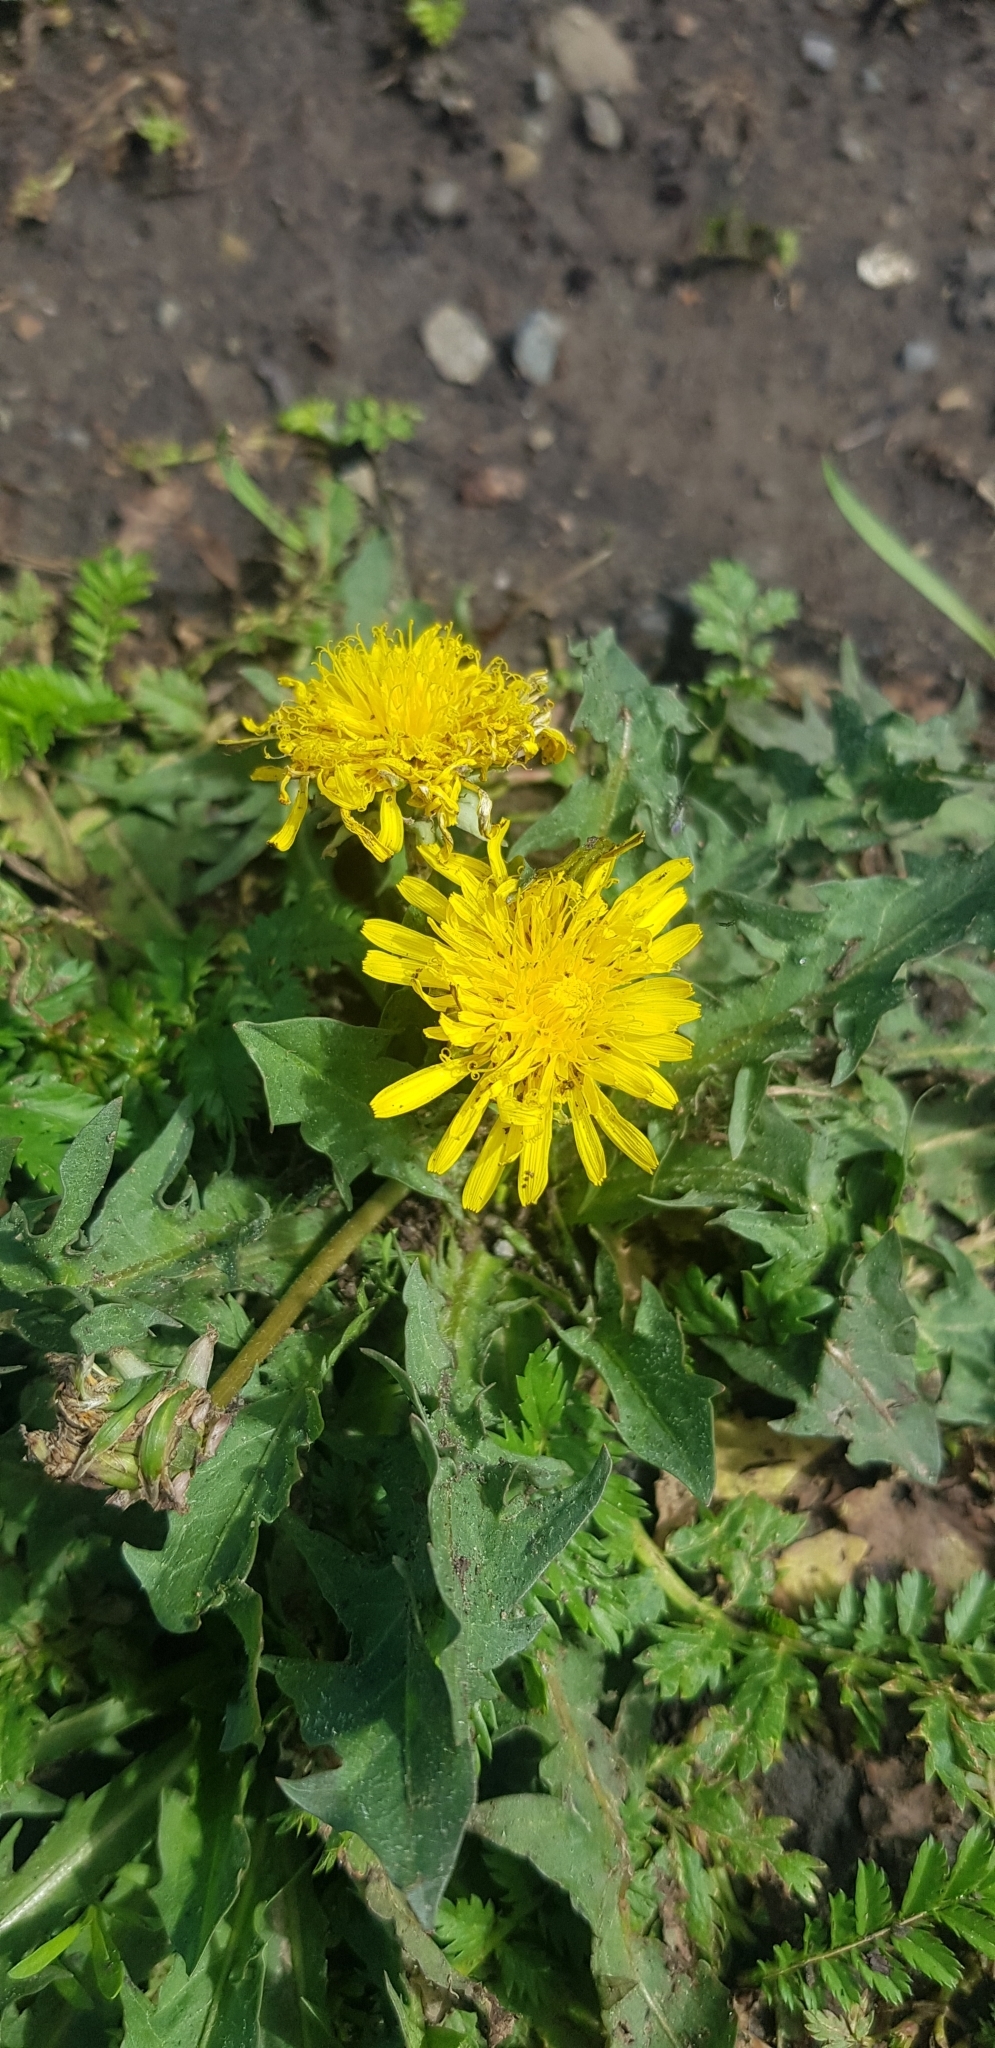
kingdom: Plantae
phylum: Tracheophyta
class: Magnoliopsida
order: Asterales
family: Asteraceae
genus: Taraxacum
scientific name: Taraxacum officinale
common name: Common dandelion
